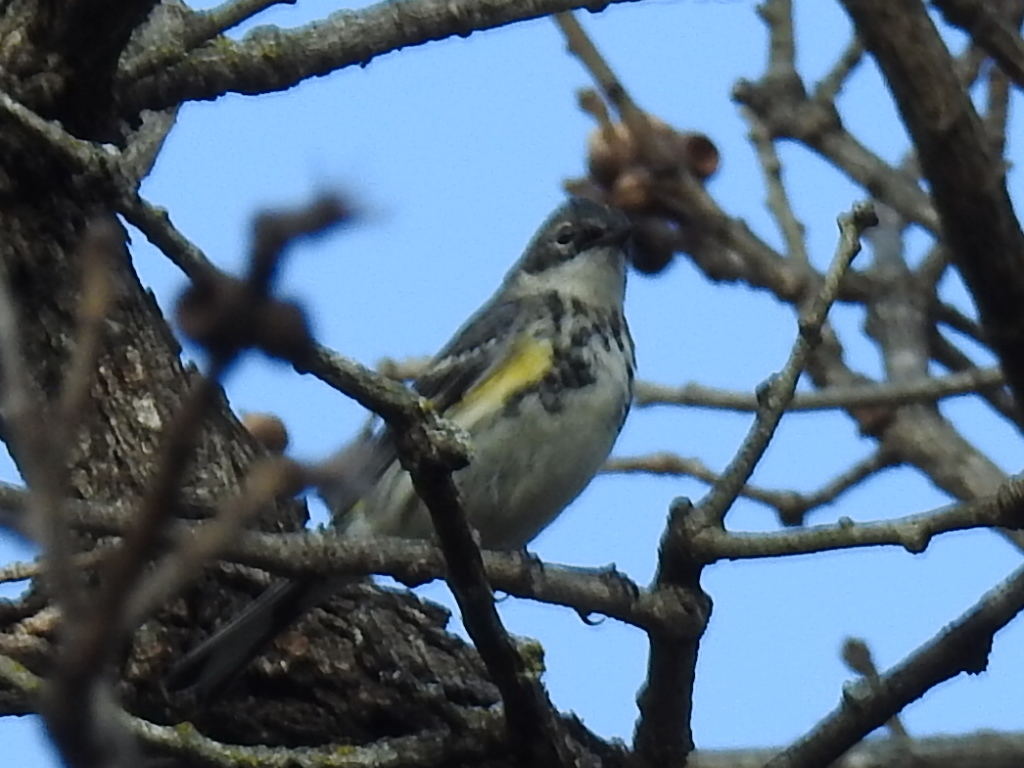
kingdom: Animalia
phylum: Chordata
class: Aves
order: Passeriformes
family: Parulidae
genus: Setophaga
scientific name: Setophaga coronata
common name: Myrtle warbler
